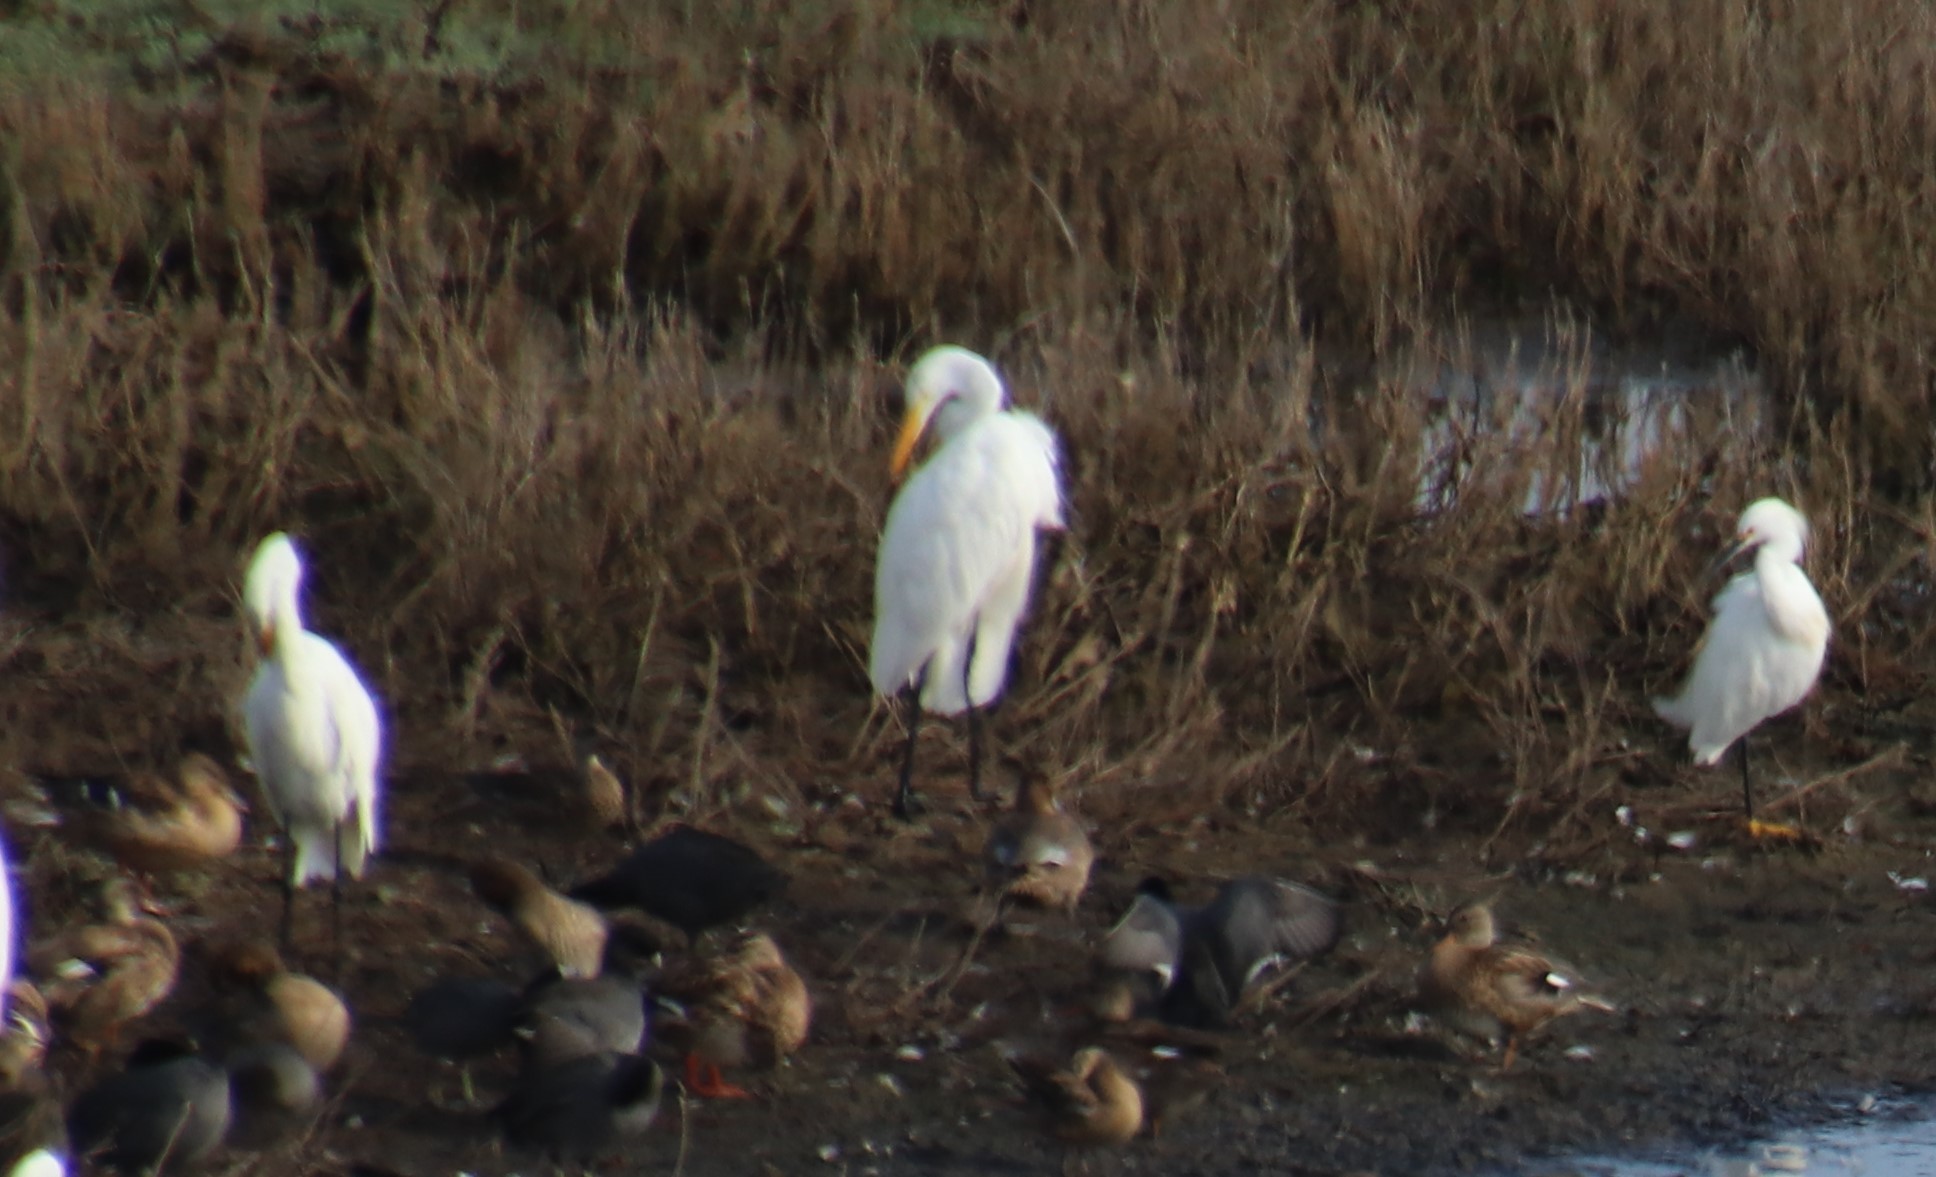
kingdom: Animalia
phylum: Chordata
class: Aves
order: Pelecaniformes
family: Ardeidae
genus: Ardea
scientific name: Ardea alba
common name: Great egret
